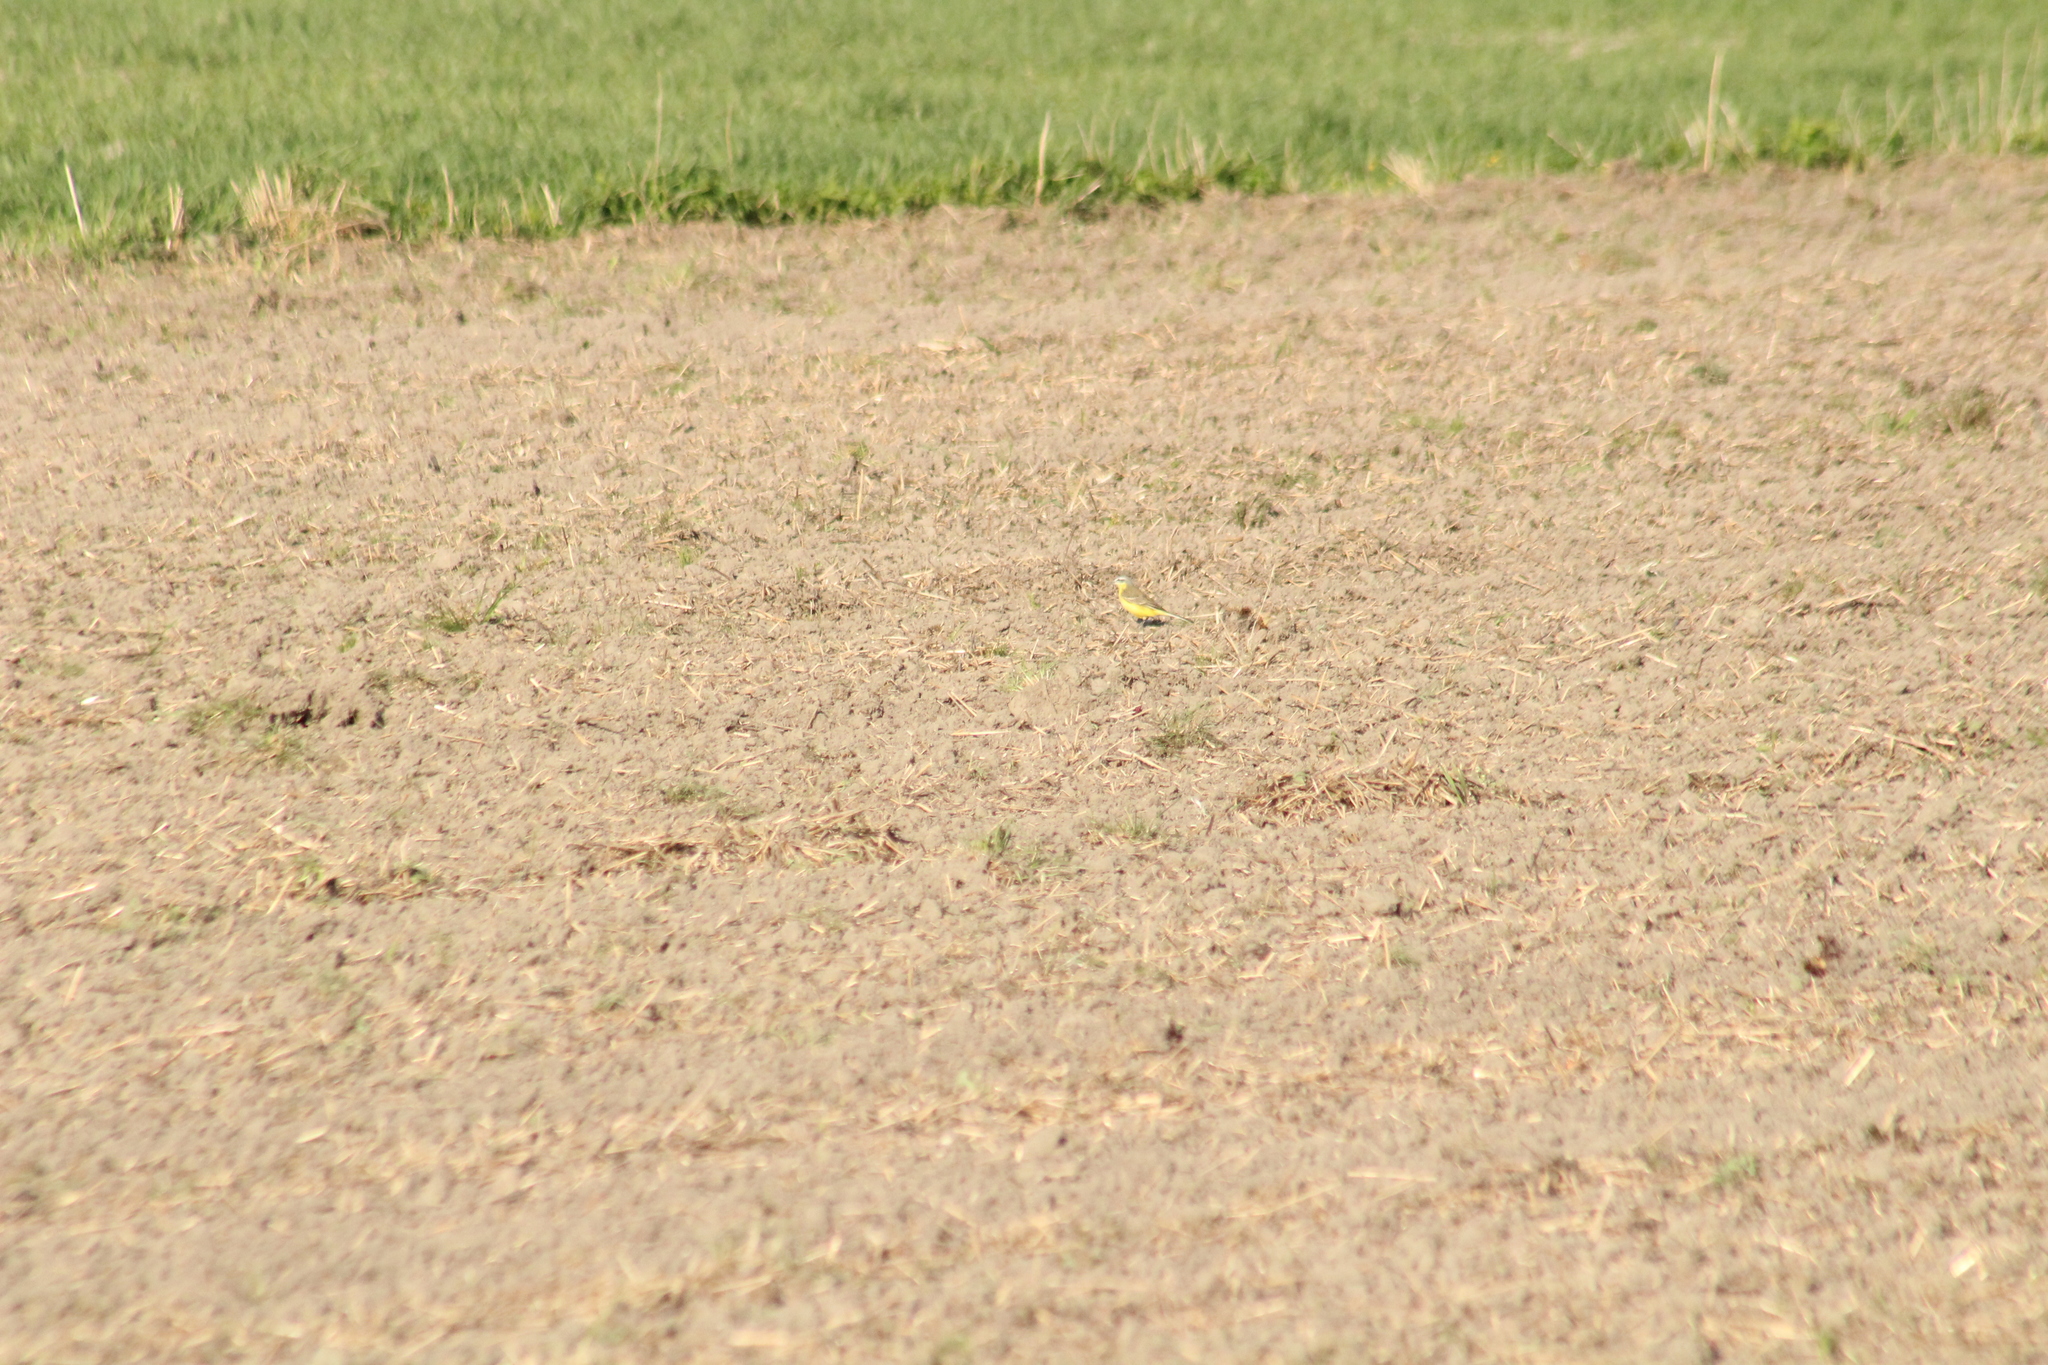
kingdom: Animalia
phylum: Chordata
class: Aves
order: Passeriformes
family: Motacillidae
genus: Motacilla
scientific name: Motacilla flava
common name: Western yellow wagtail
